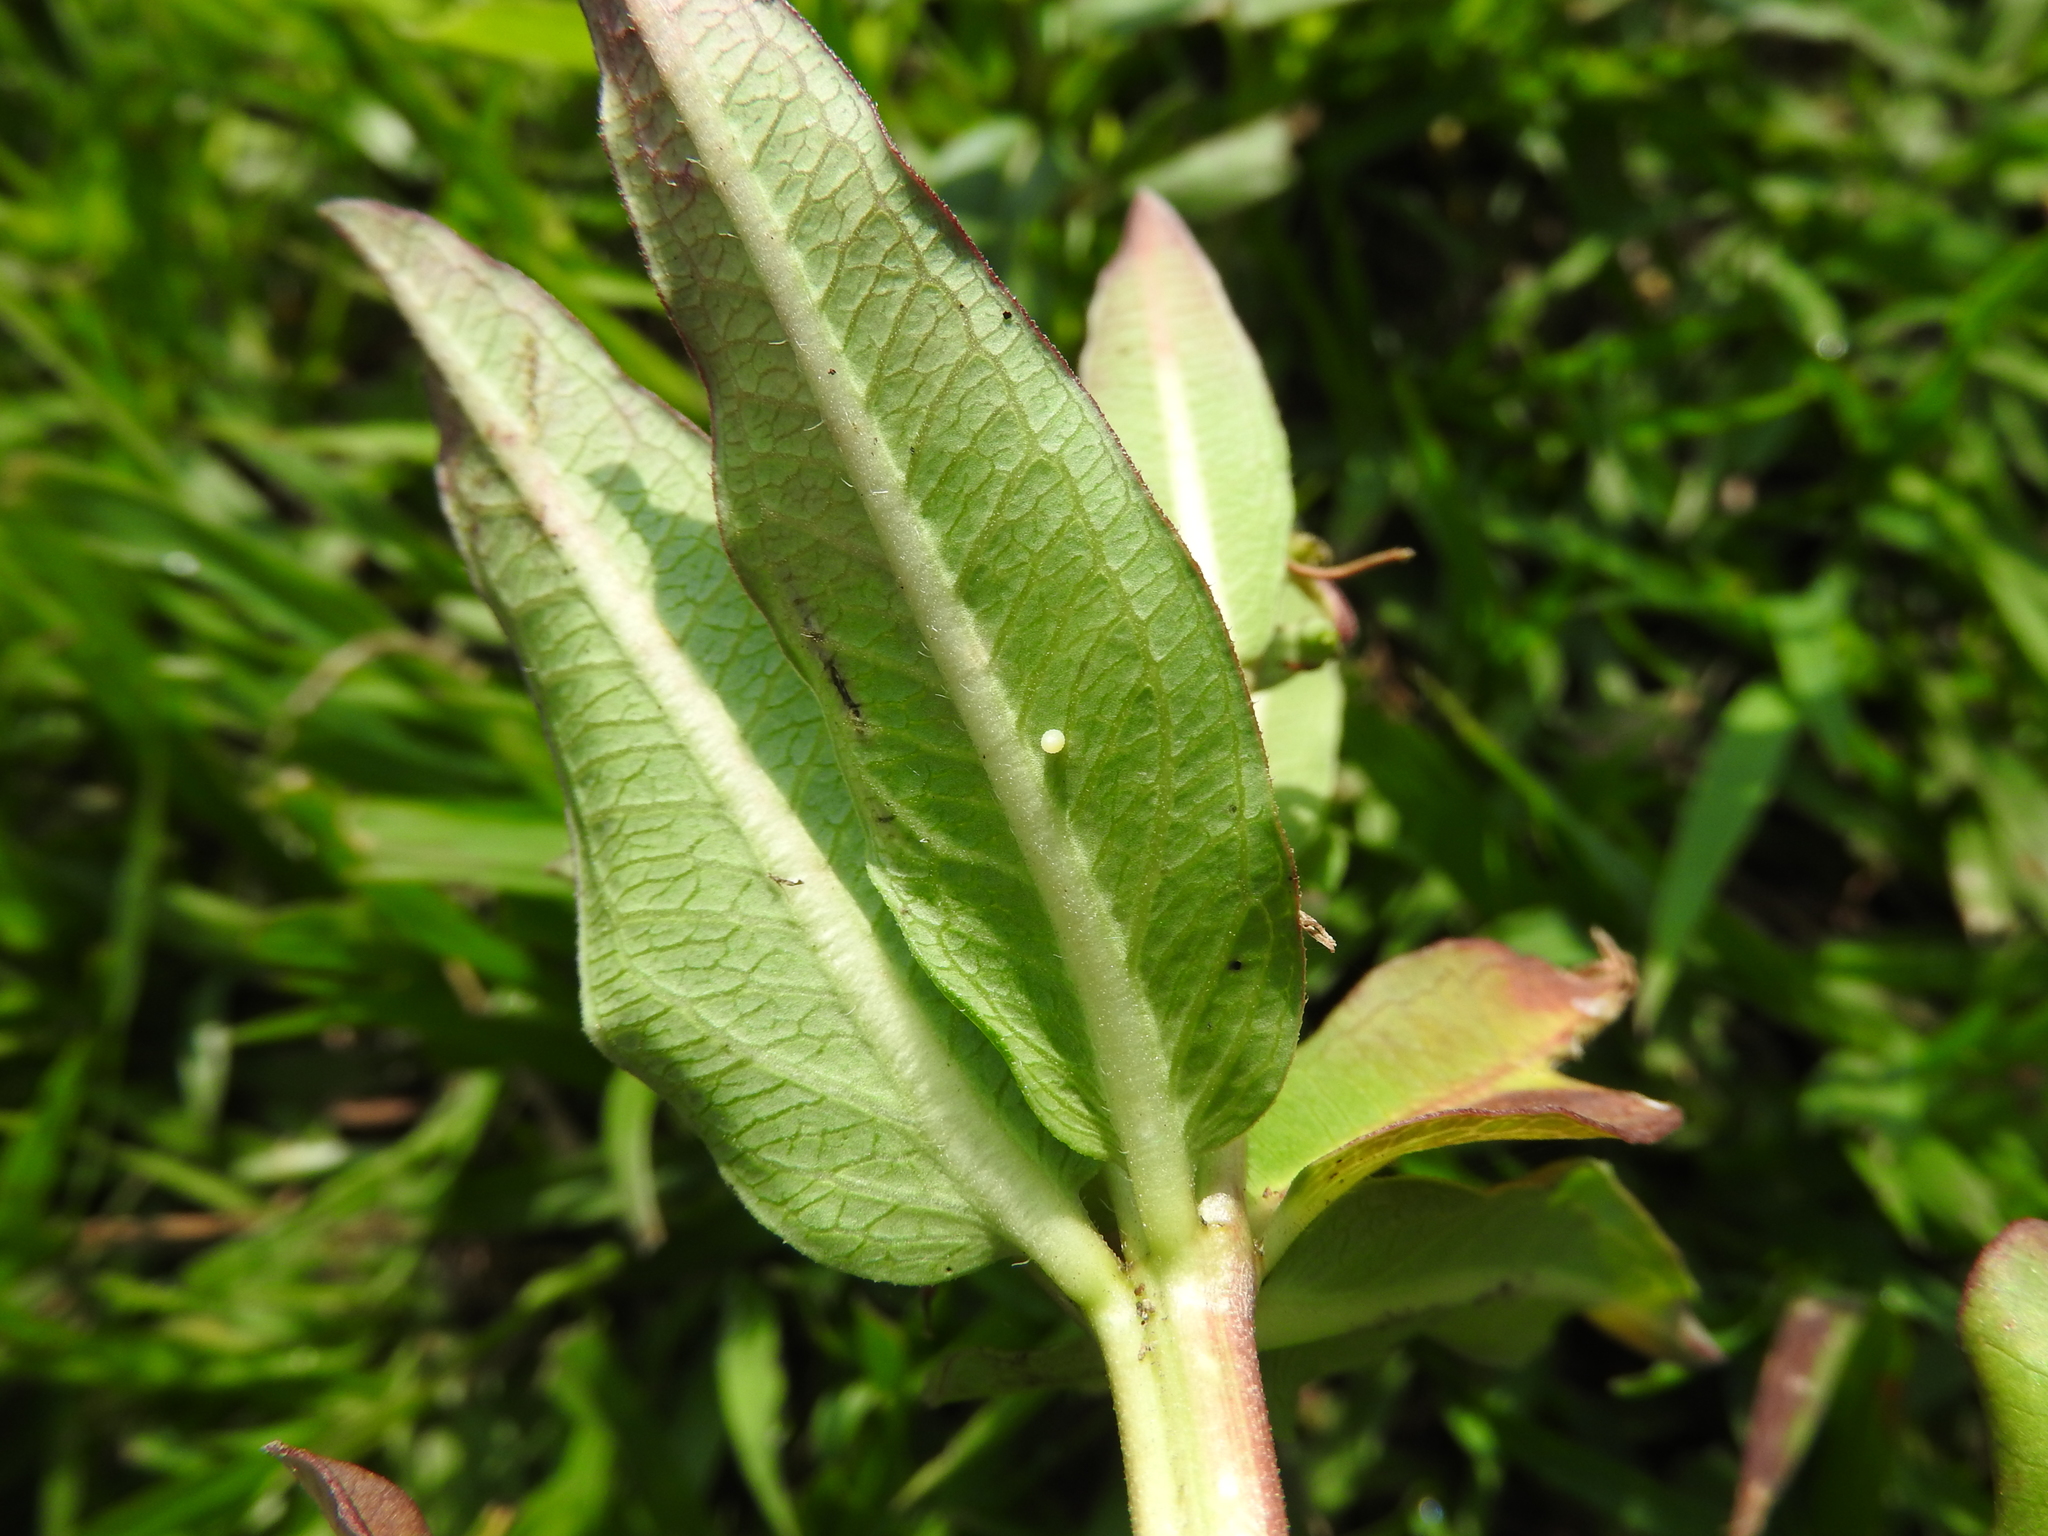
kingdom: Animalia
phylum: Arthropoda
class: Insecta
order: Lepidoptera
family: Nymphalidae
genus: Danaus
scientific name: Danaus plexippus
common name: Monarch
